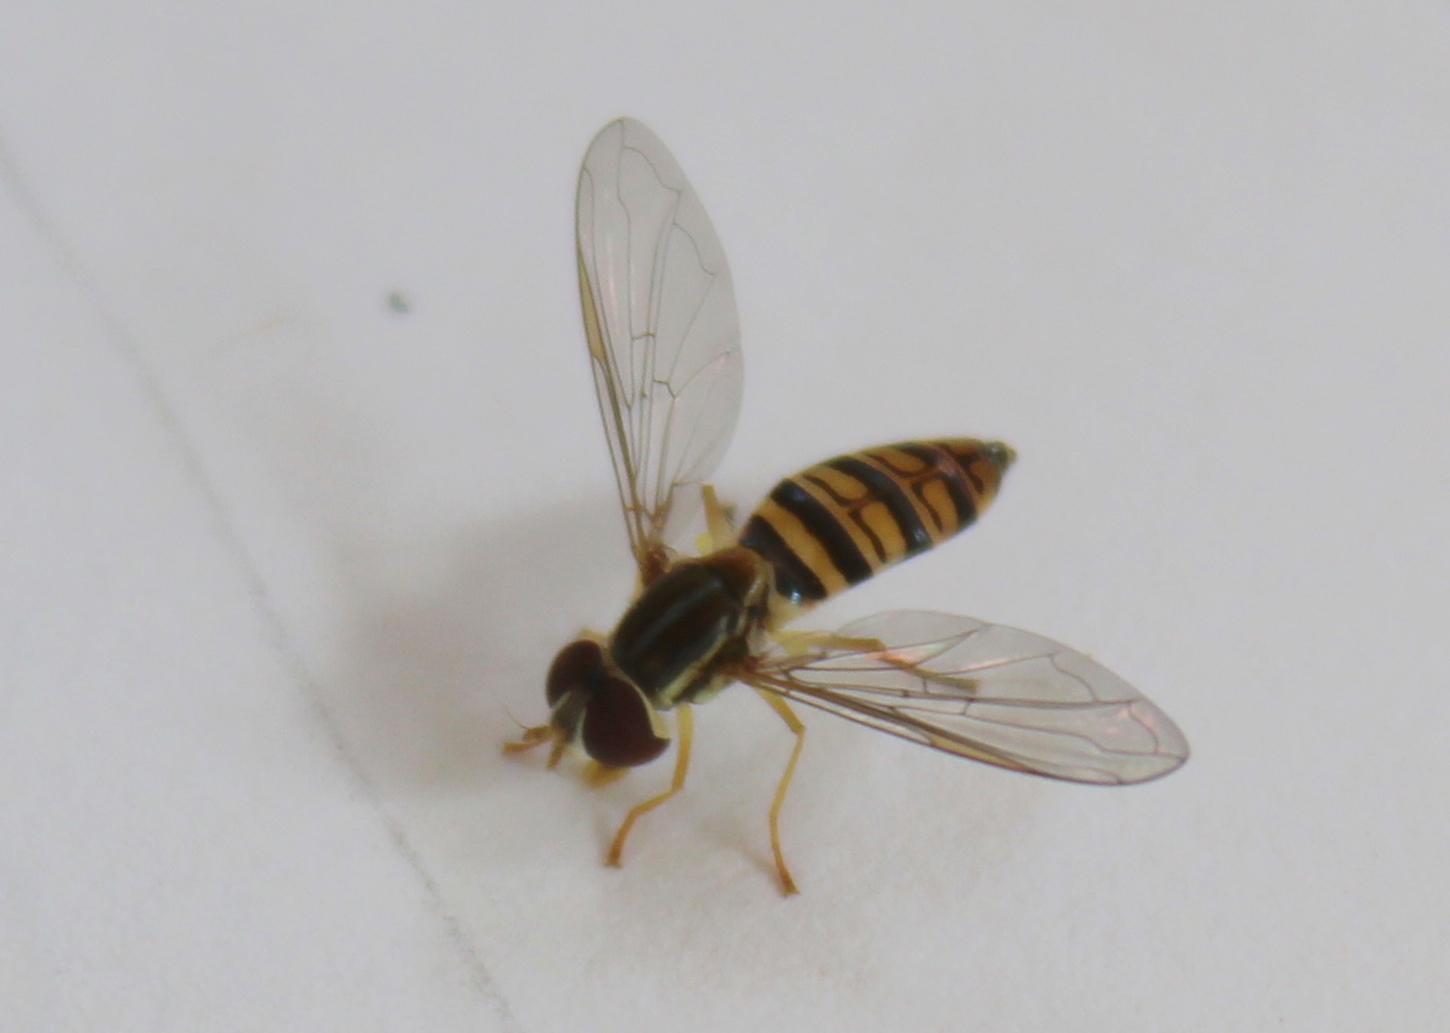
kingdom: Animalia
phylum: Arthropoda
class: Insecta
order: Diptera
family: Syrphidae
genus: Toxomerus
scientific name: Toxomerus politus
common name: Maize calligrapher
